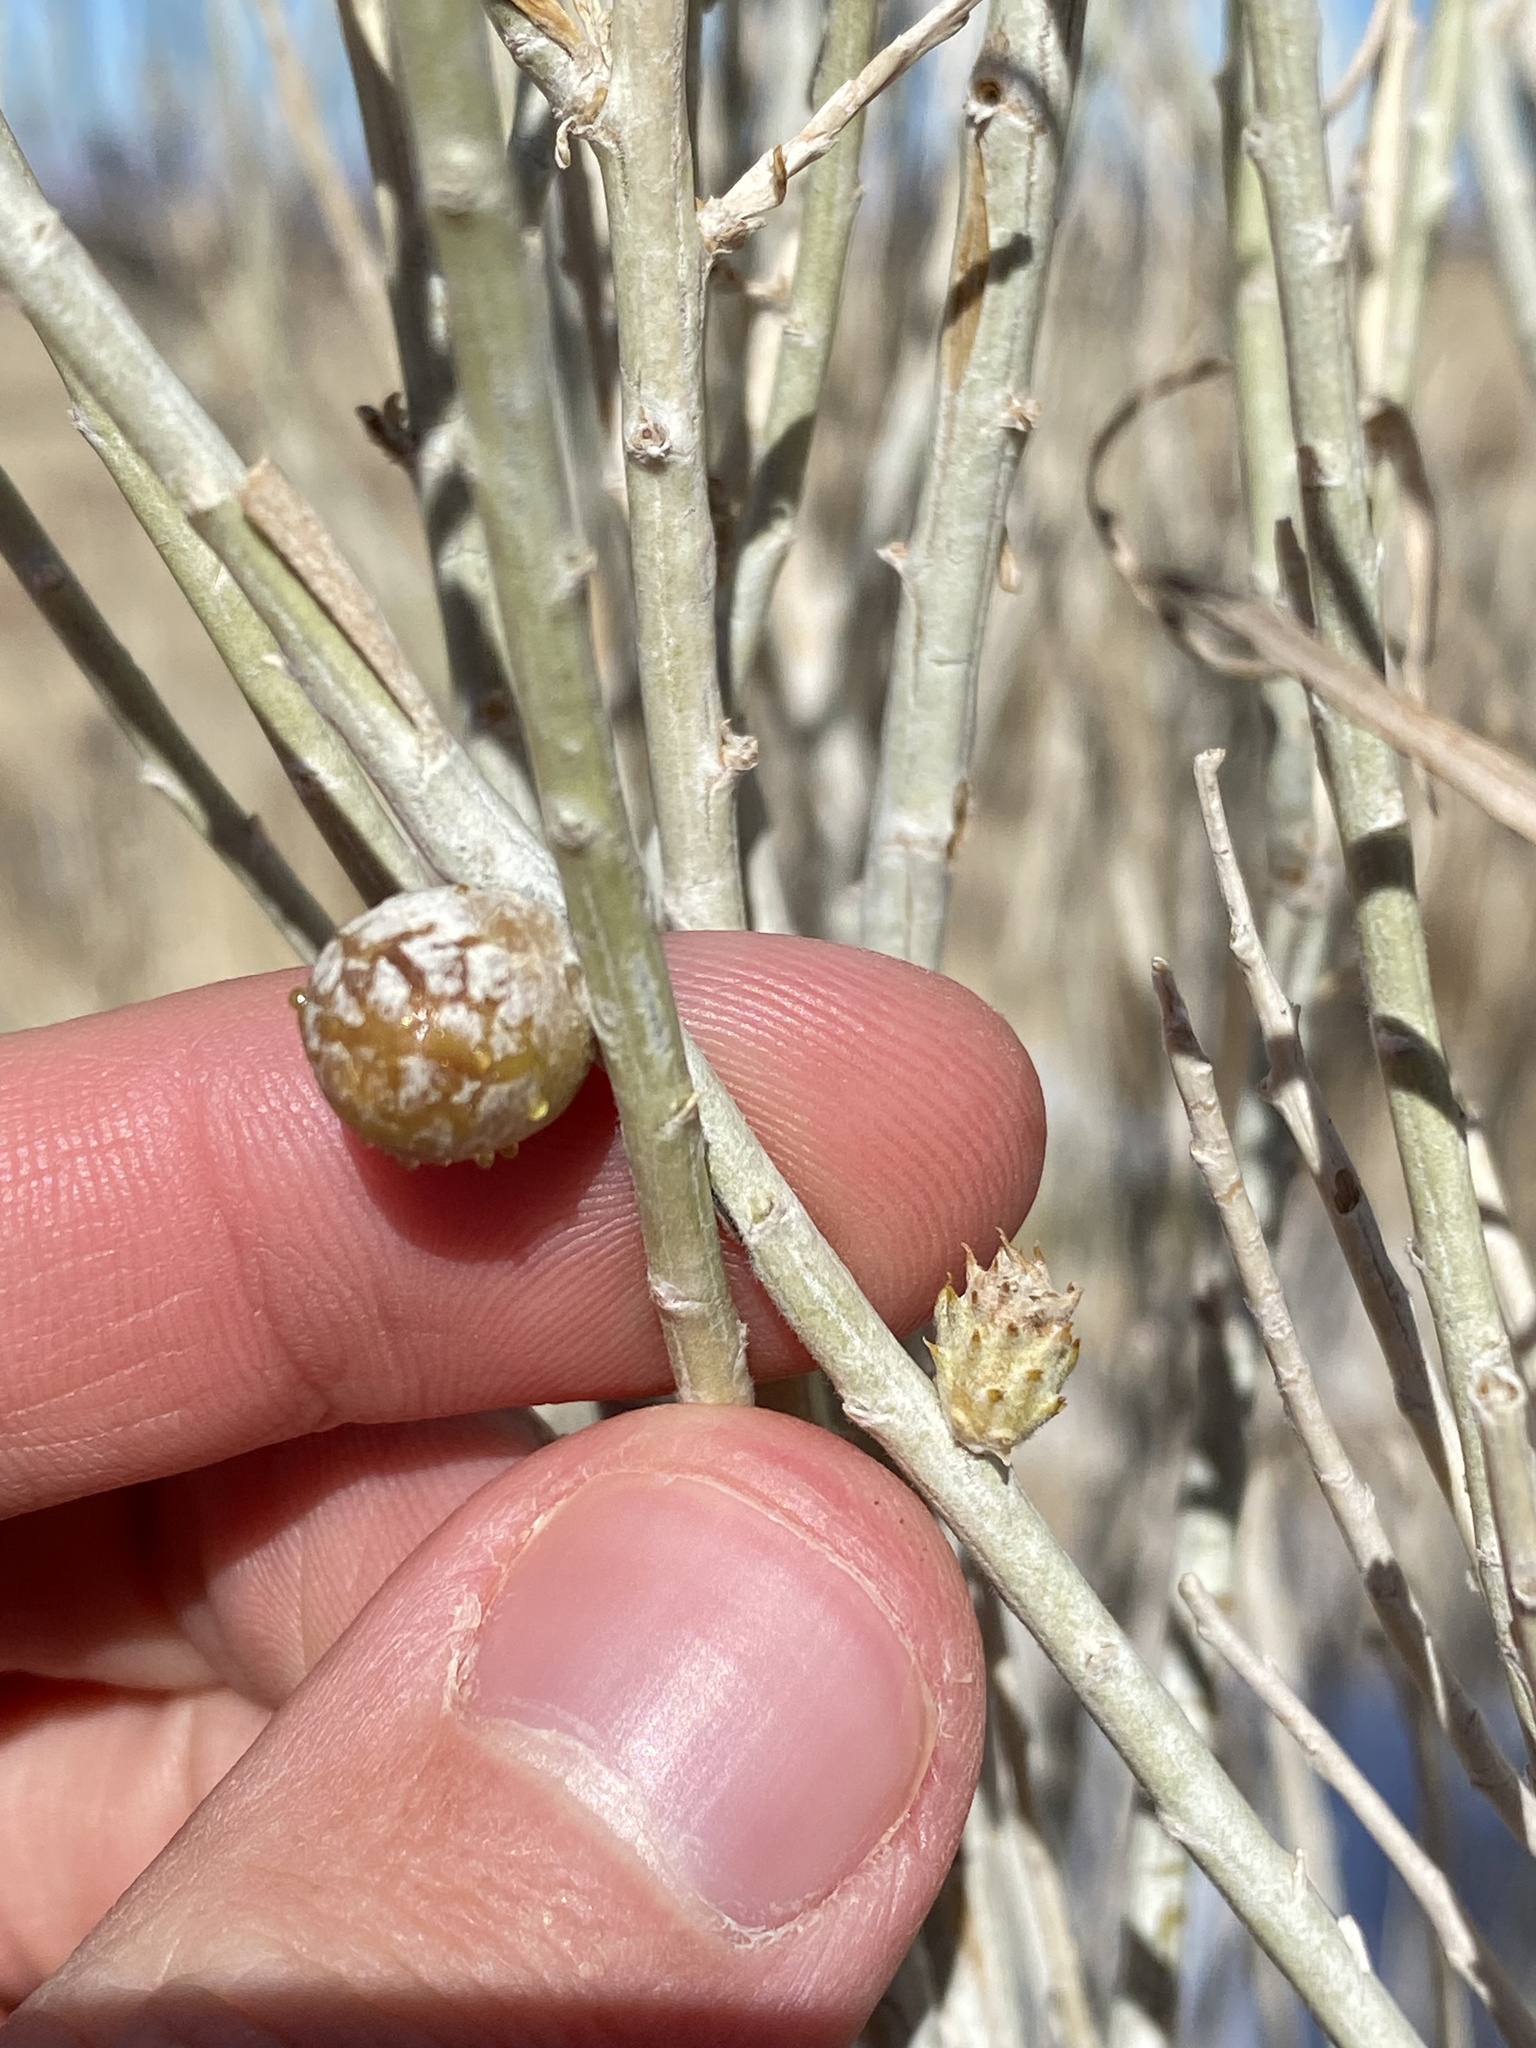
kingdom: Animalia
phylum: Arthropoda
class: Insecta
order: Diptera
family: Cecidomyiidae
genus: Rhopalomyia
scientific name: Rhopalomyia utahensis
